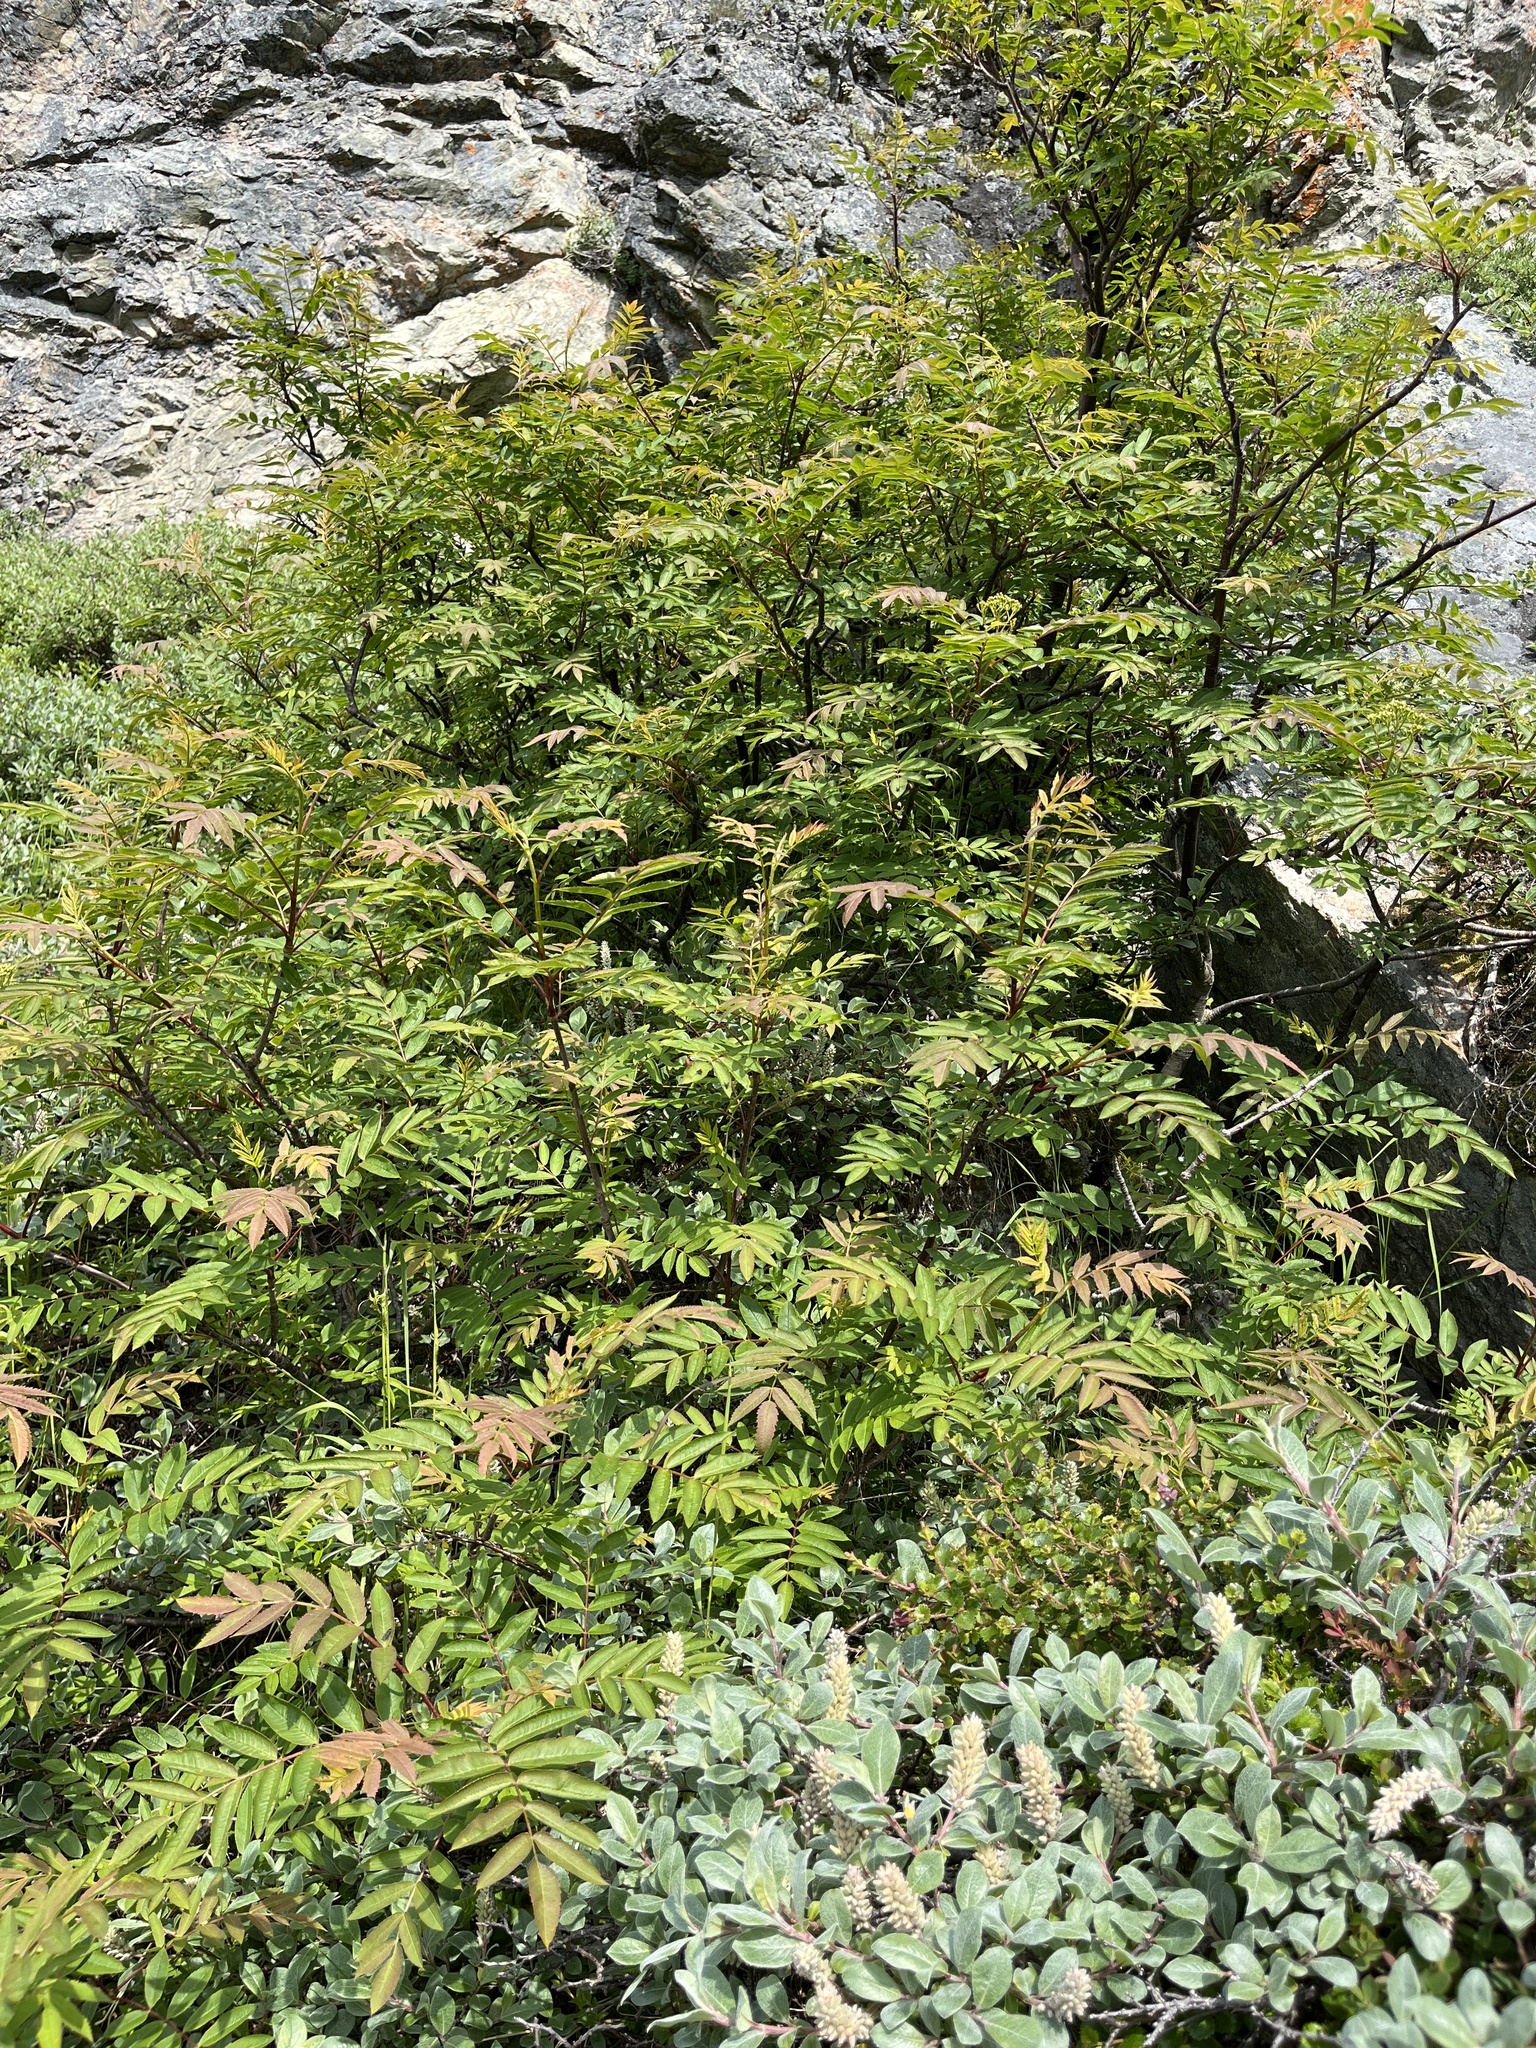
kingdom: Plantae
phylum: Tracheophyta
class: Magnoliopsida
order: Rosales
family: Rosaceae
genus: Sorbus
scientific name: Sorbus decora
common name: Northern mountain-ash
